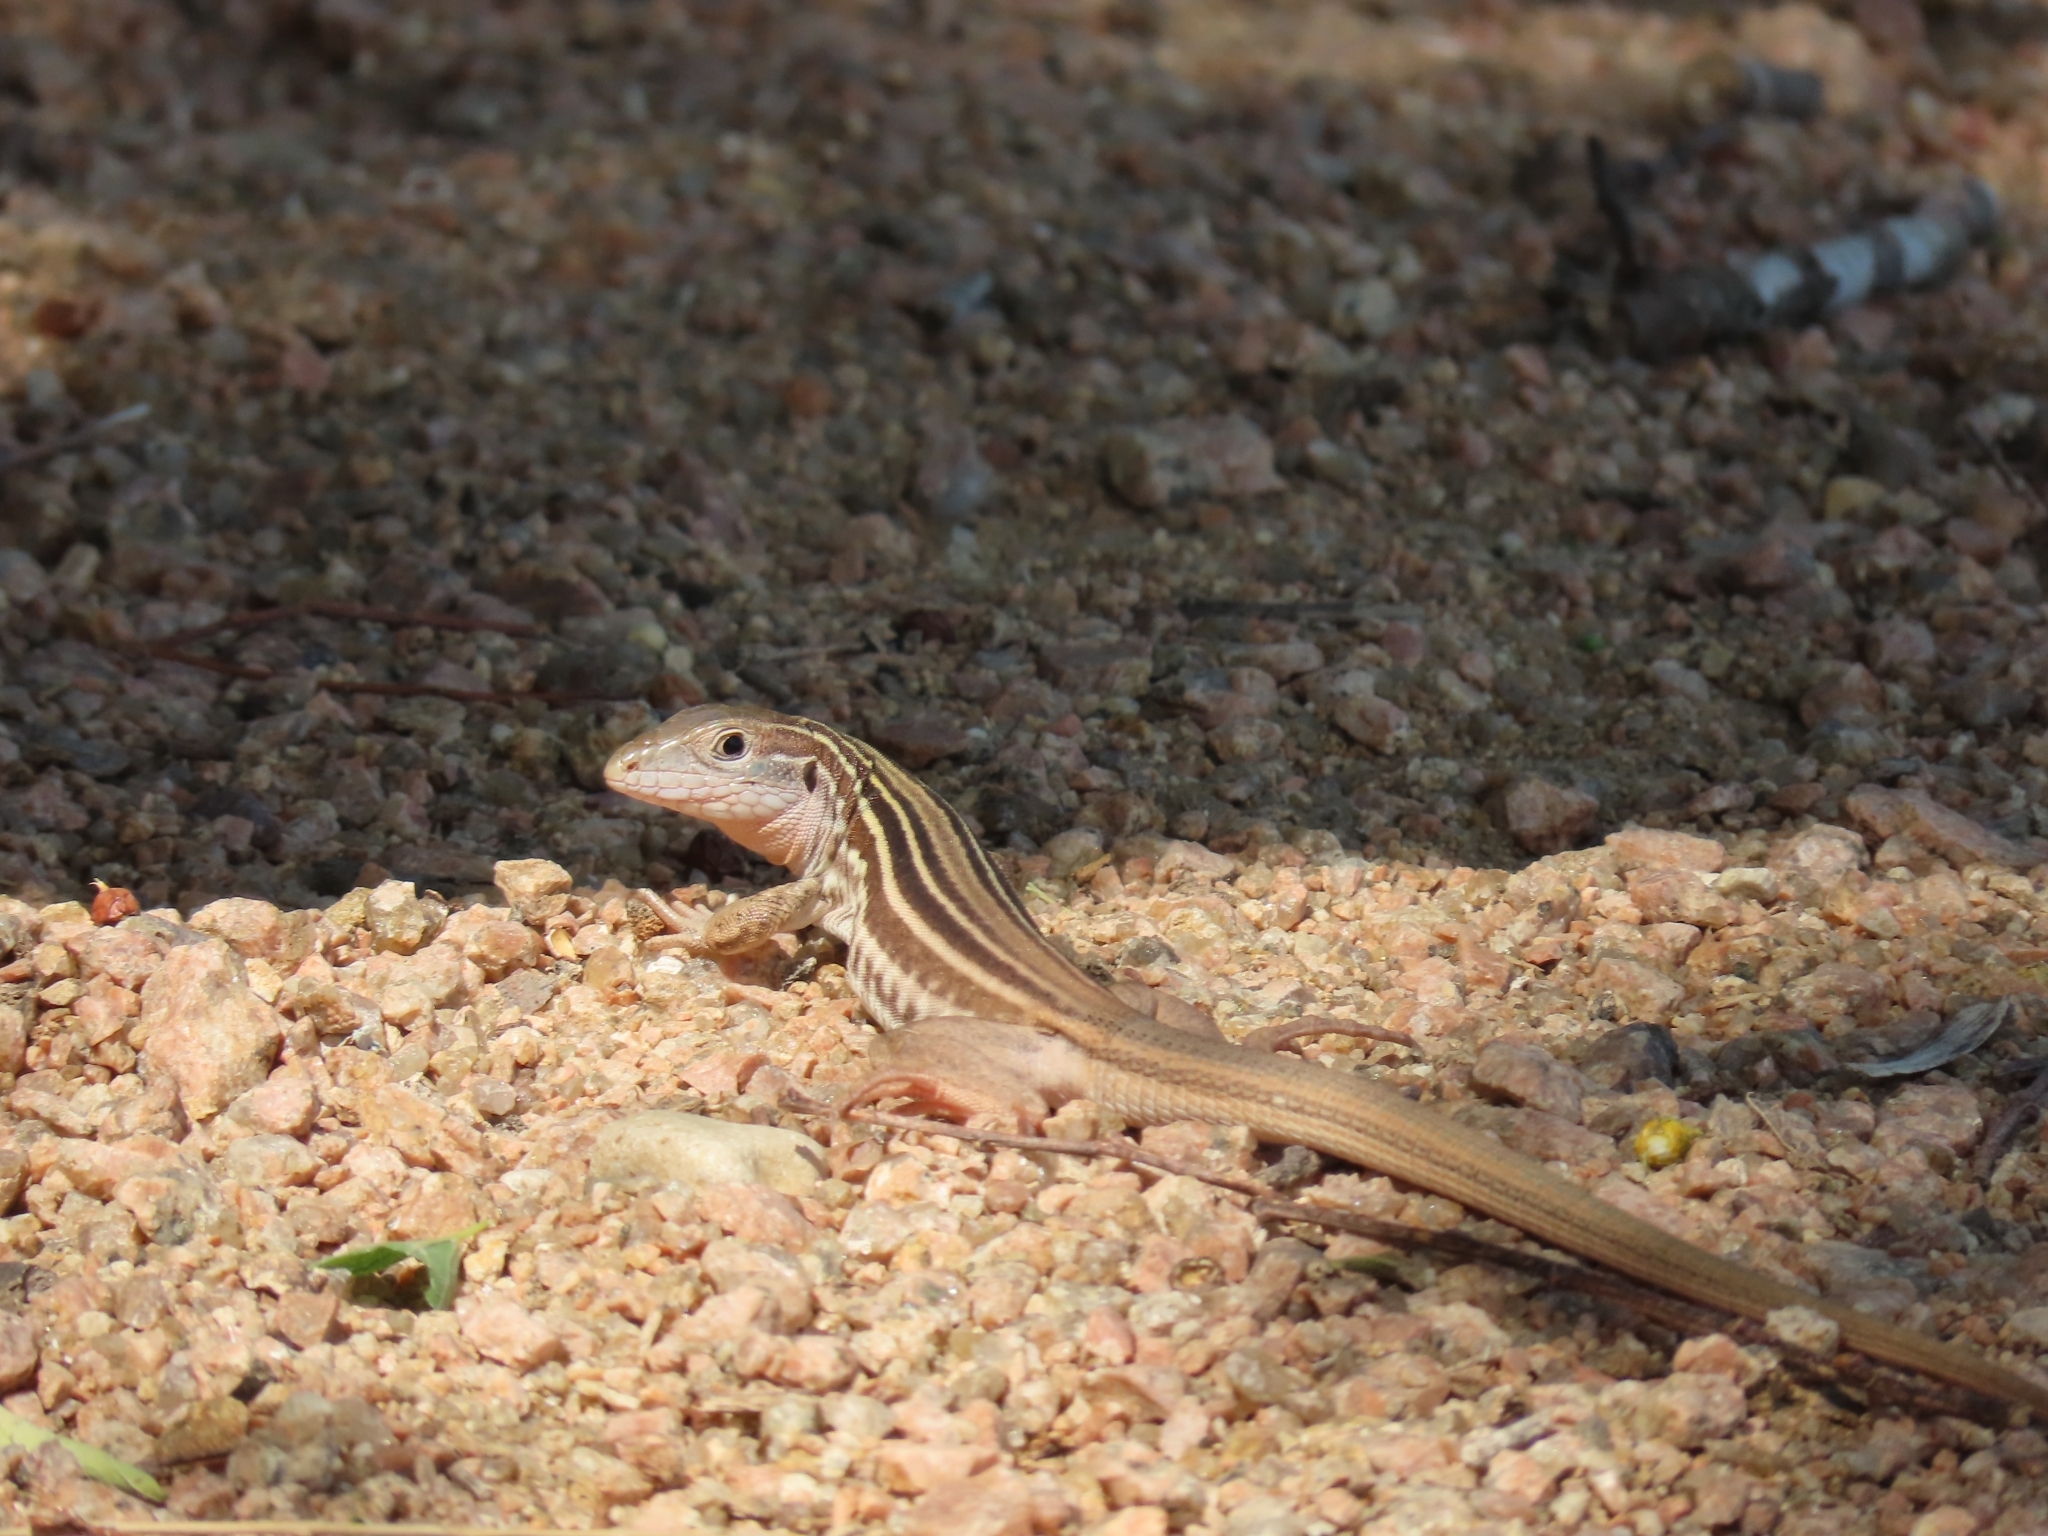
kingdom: Animalia
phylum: Chordata
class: Squamata
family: Teiidae
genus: Aspidoscelis
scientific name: Aspidoscelis gularis
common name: Eastern spotted whiptail
